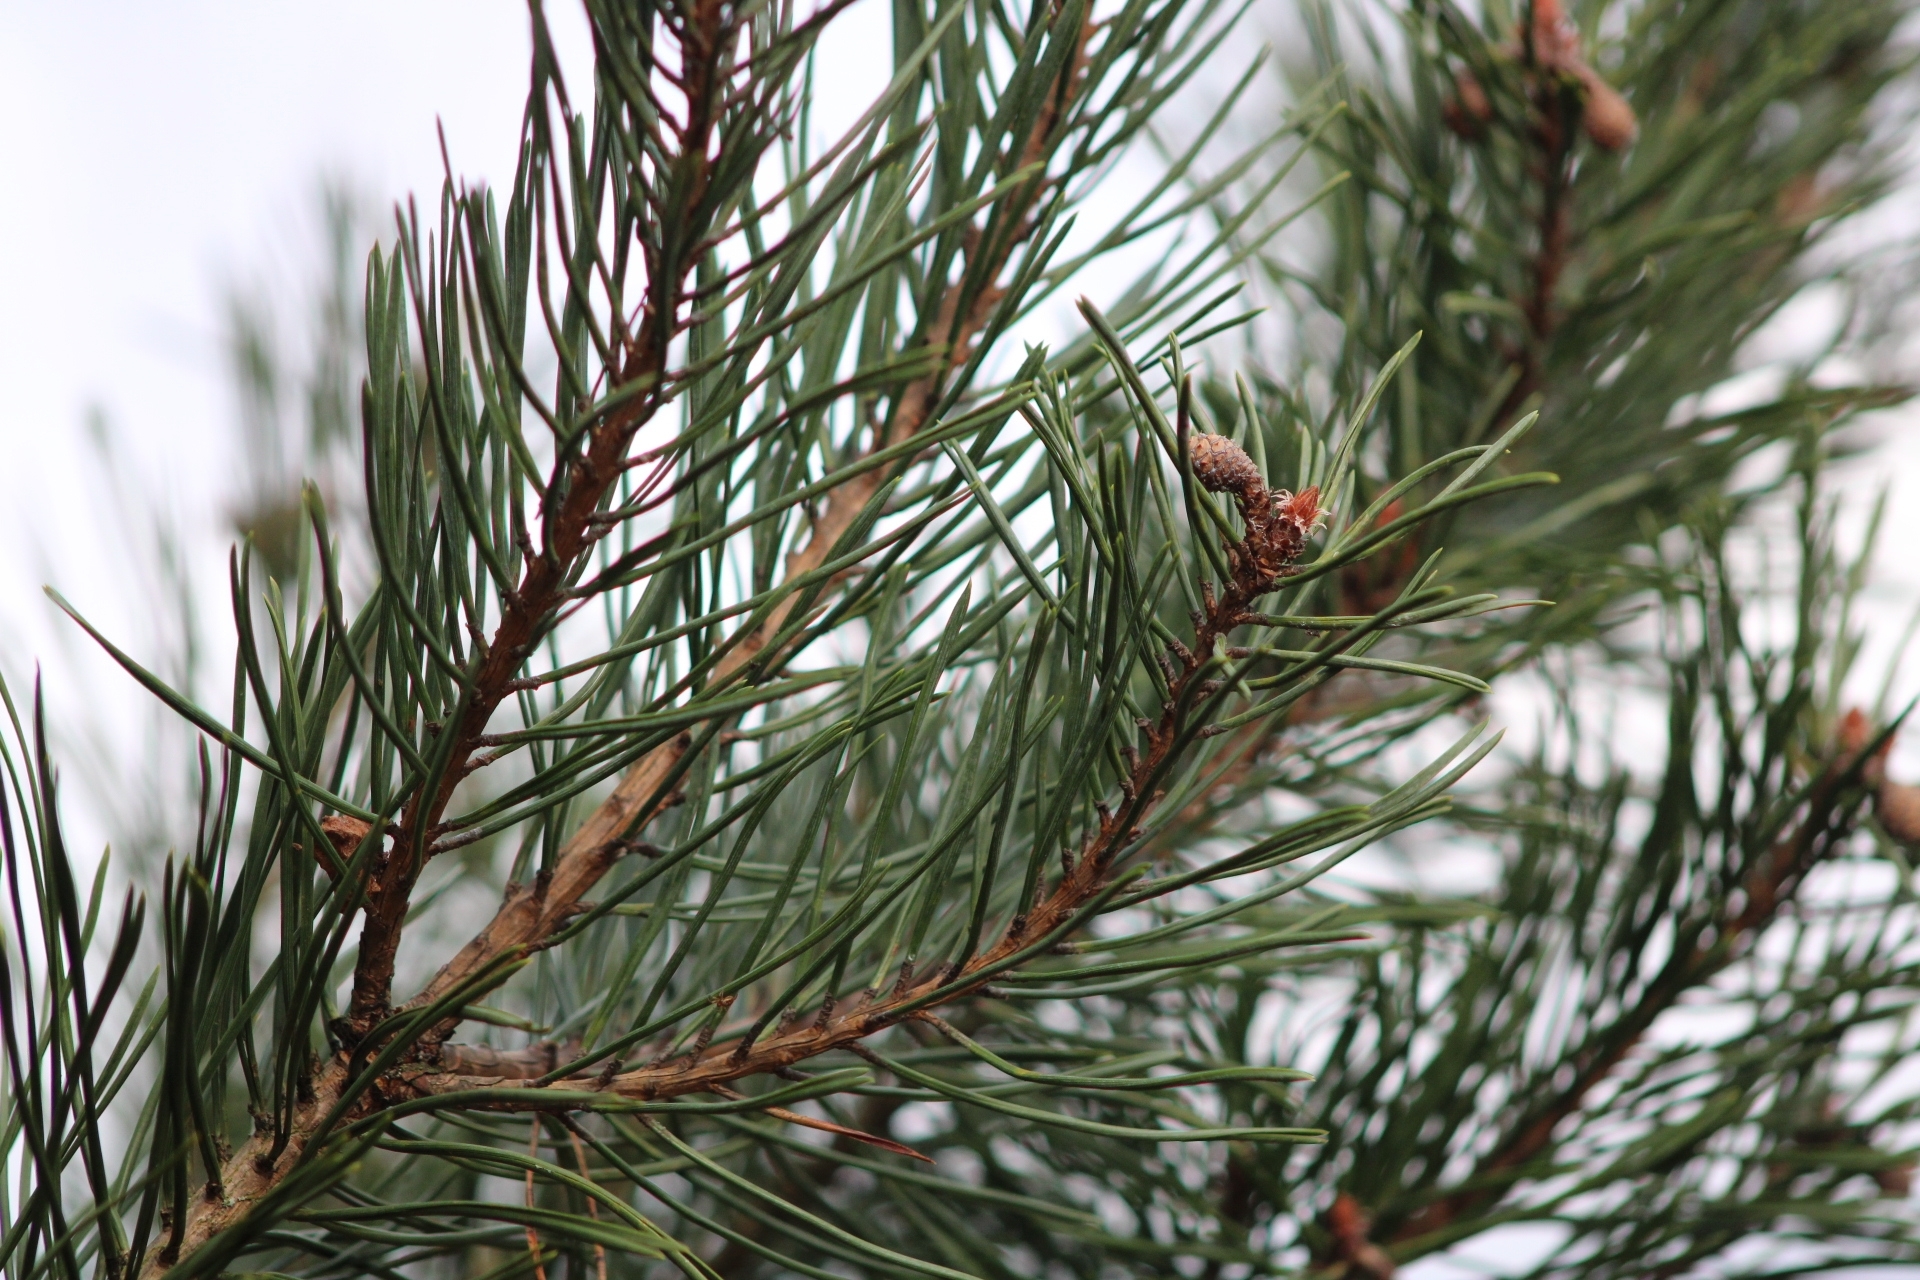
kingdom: Plantae
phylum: Tracheophyta
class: Pinopsida
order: Pinales
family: Pinaceae
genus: Pinus
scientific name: Pinus sylvestris
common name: Scots pine
